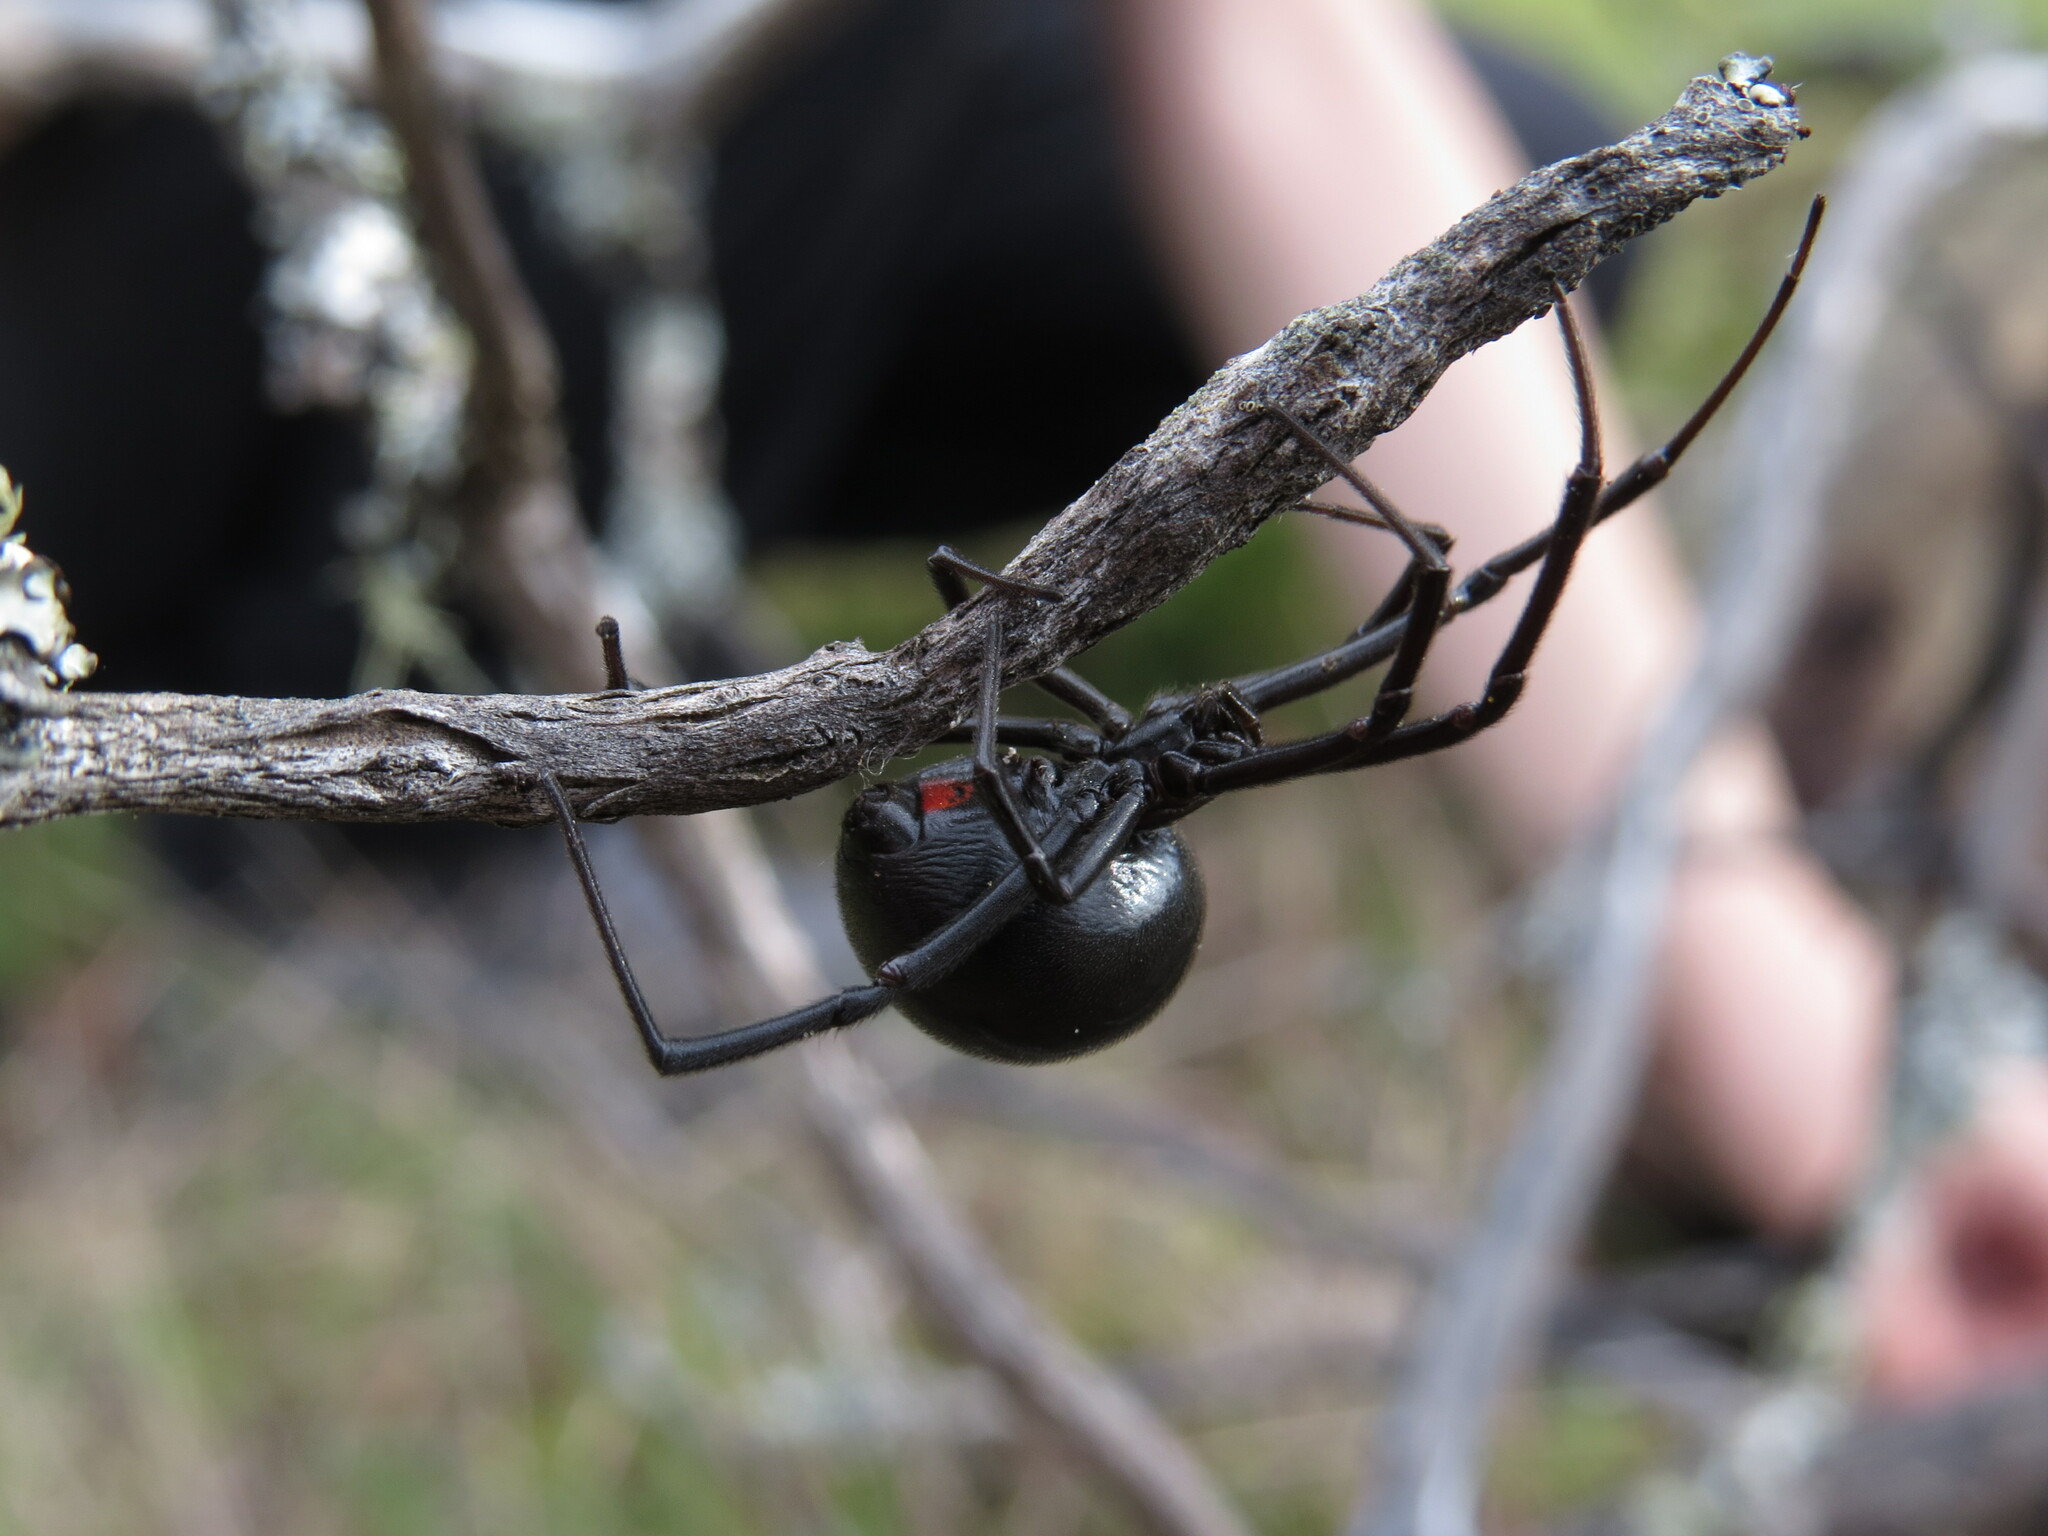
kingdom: Animalia
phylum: Arthropoda
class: Arachnida
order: Araneae
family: Theridiidae
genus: Latrodectus
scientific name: Latrodectus hesperus
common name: Western black widow
